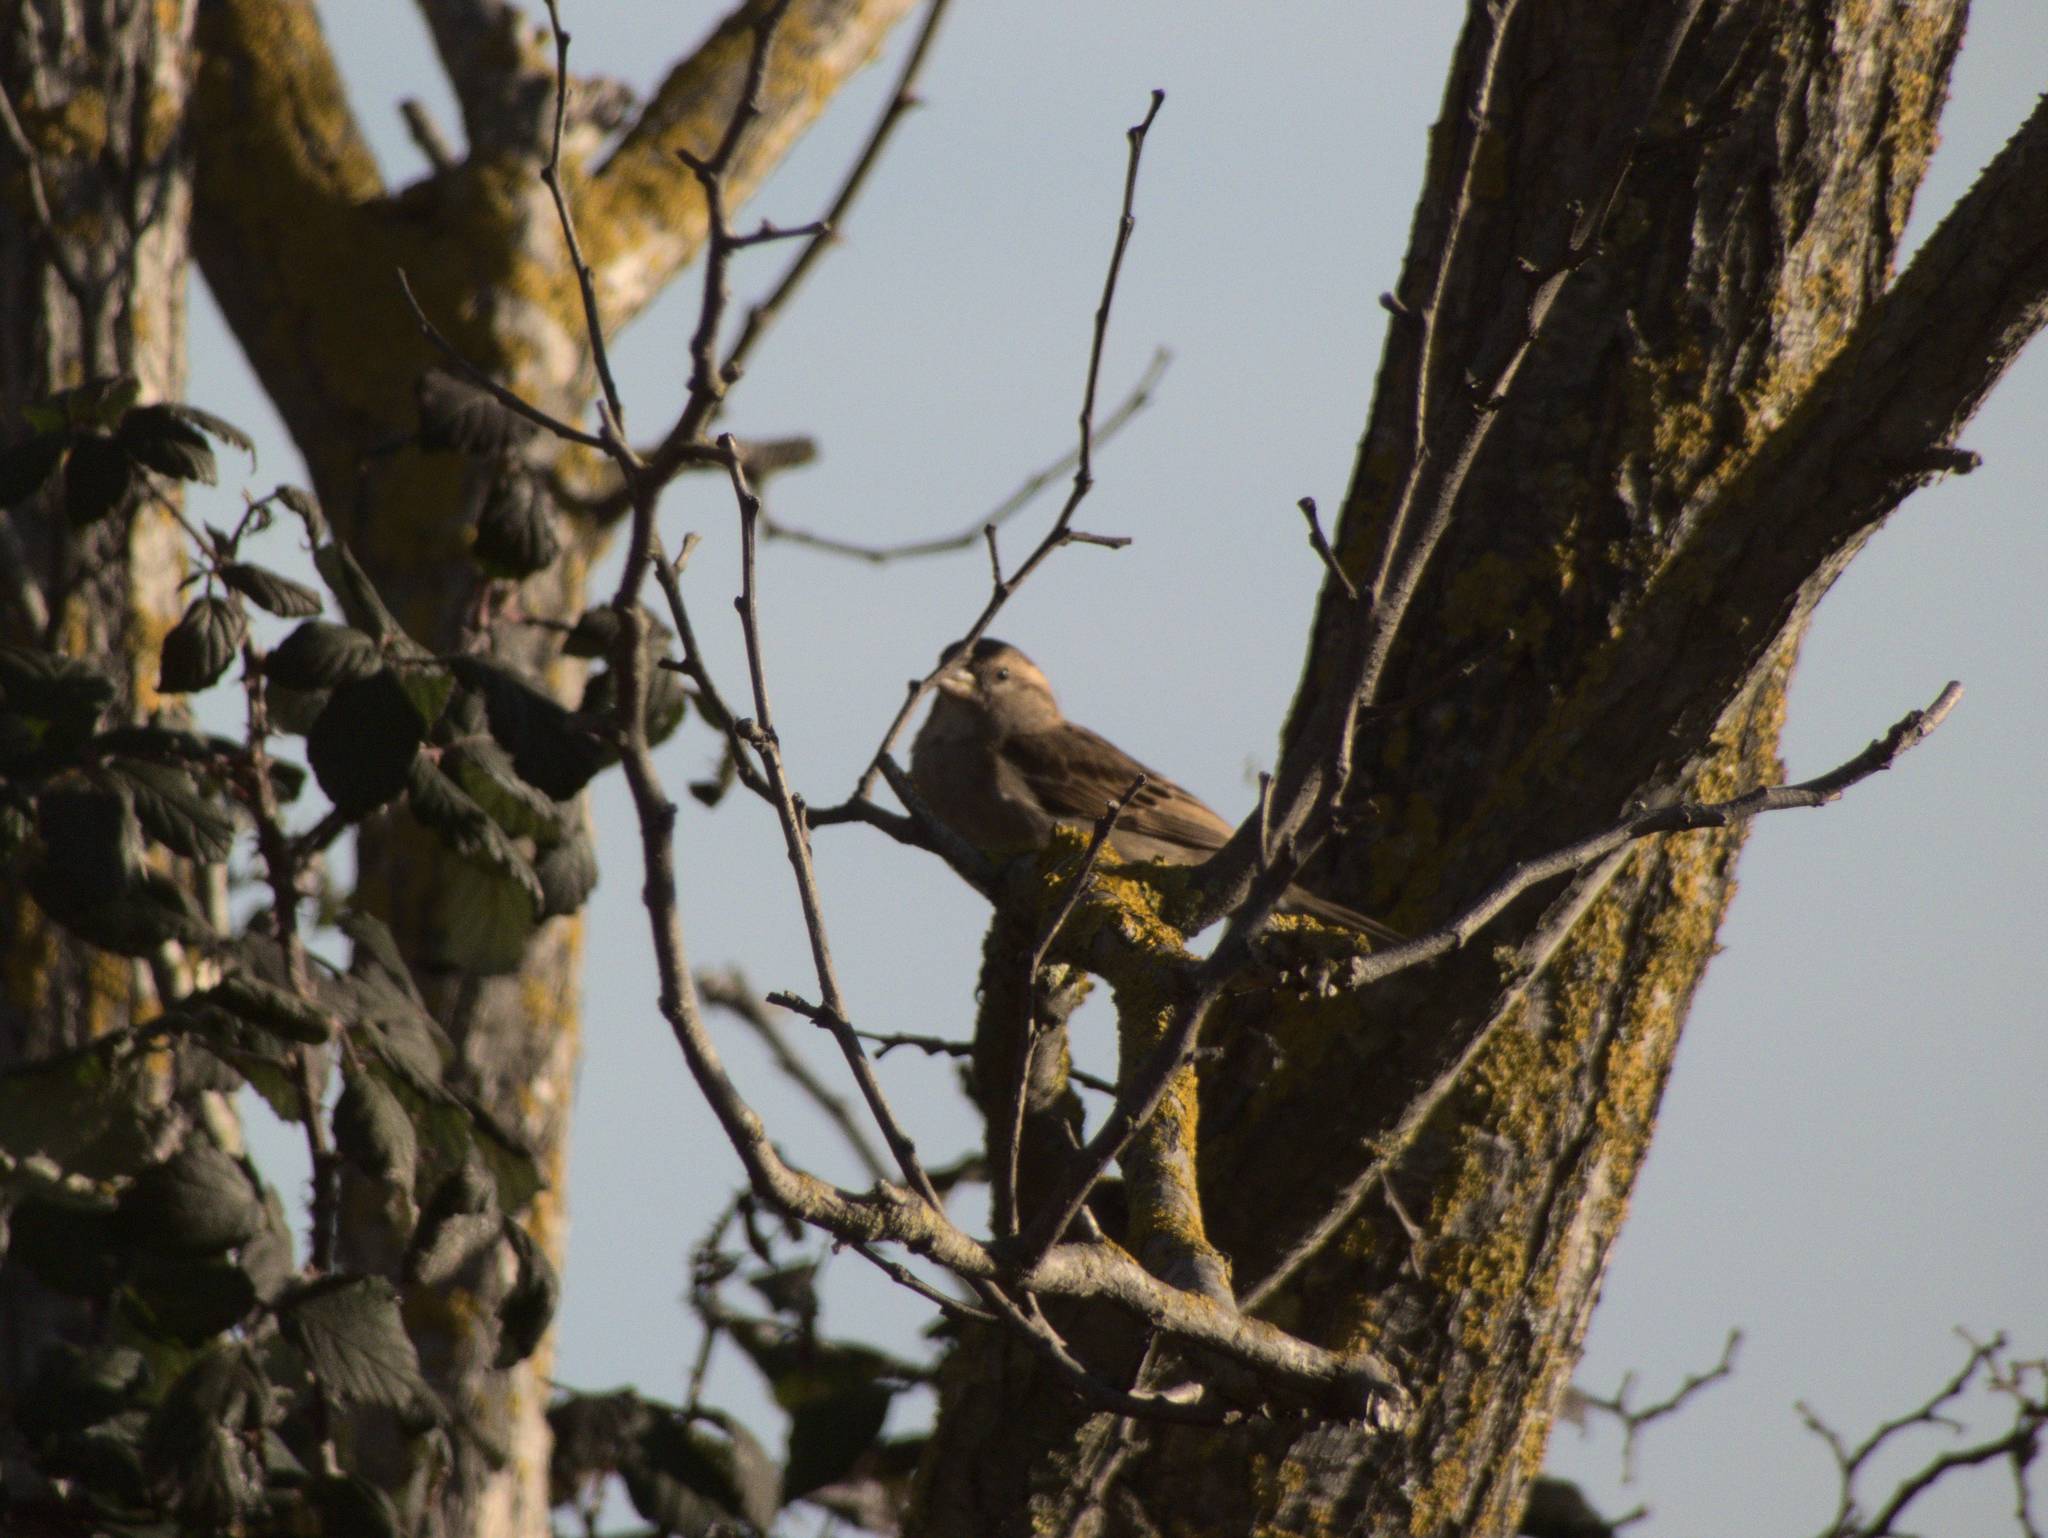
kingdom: Animalia
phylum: Chordata
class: Aves
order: Passeriformes
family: Passeridae
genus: Passer
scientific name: Passer domesticus
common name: House sparrow
